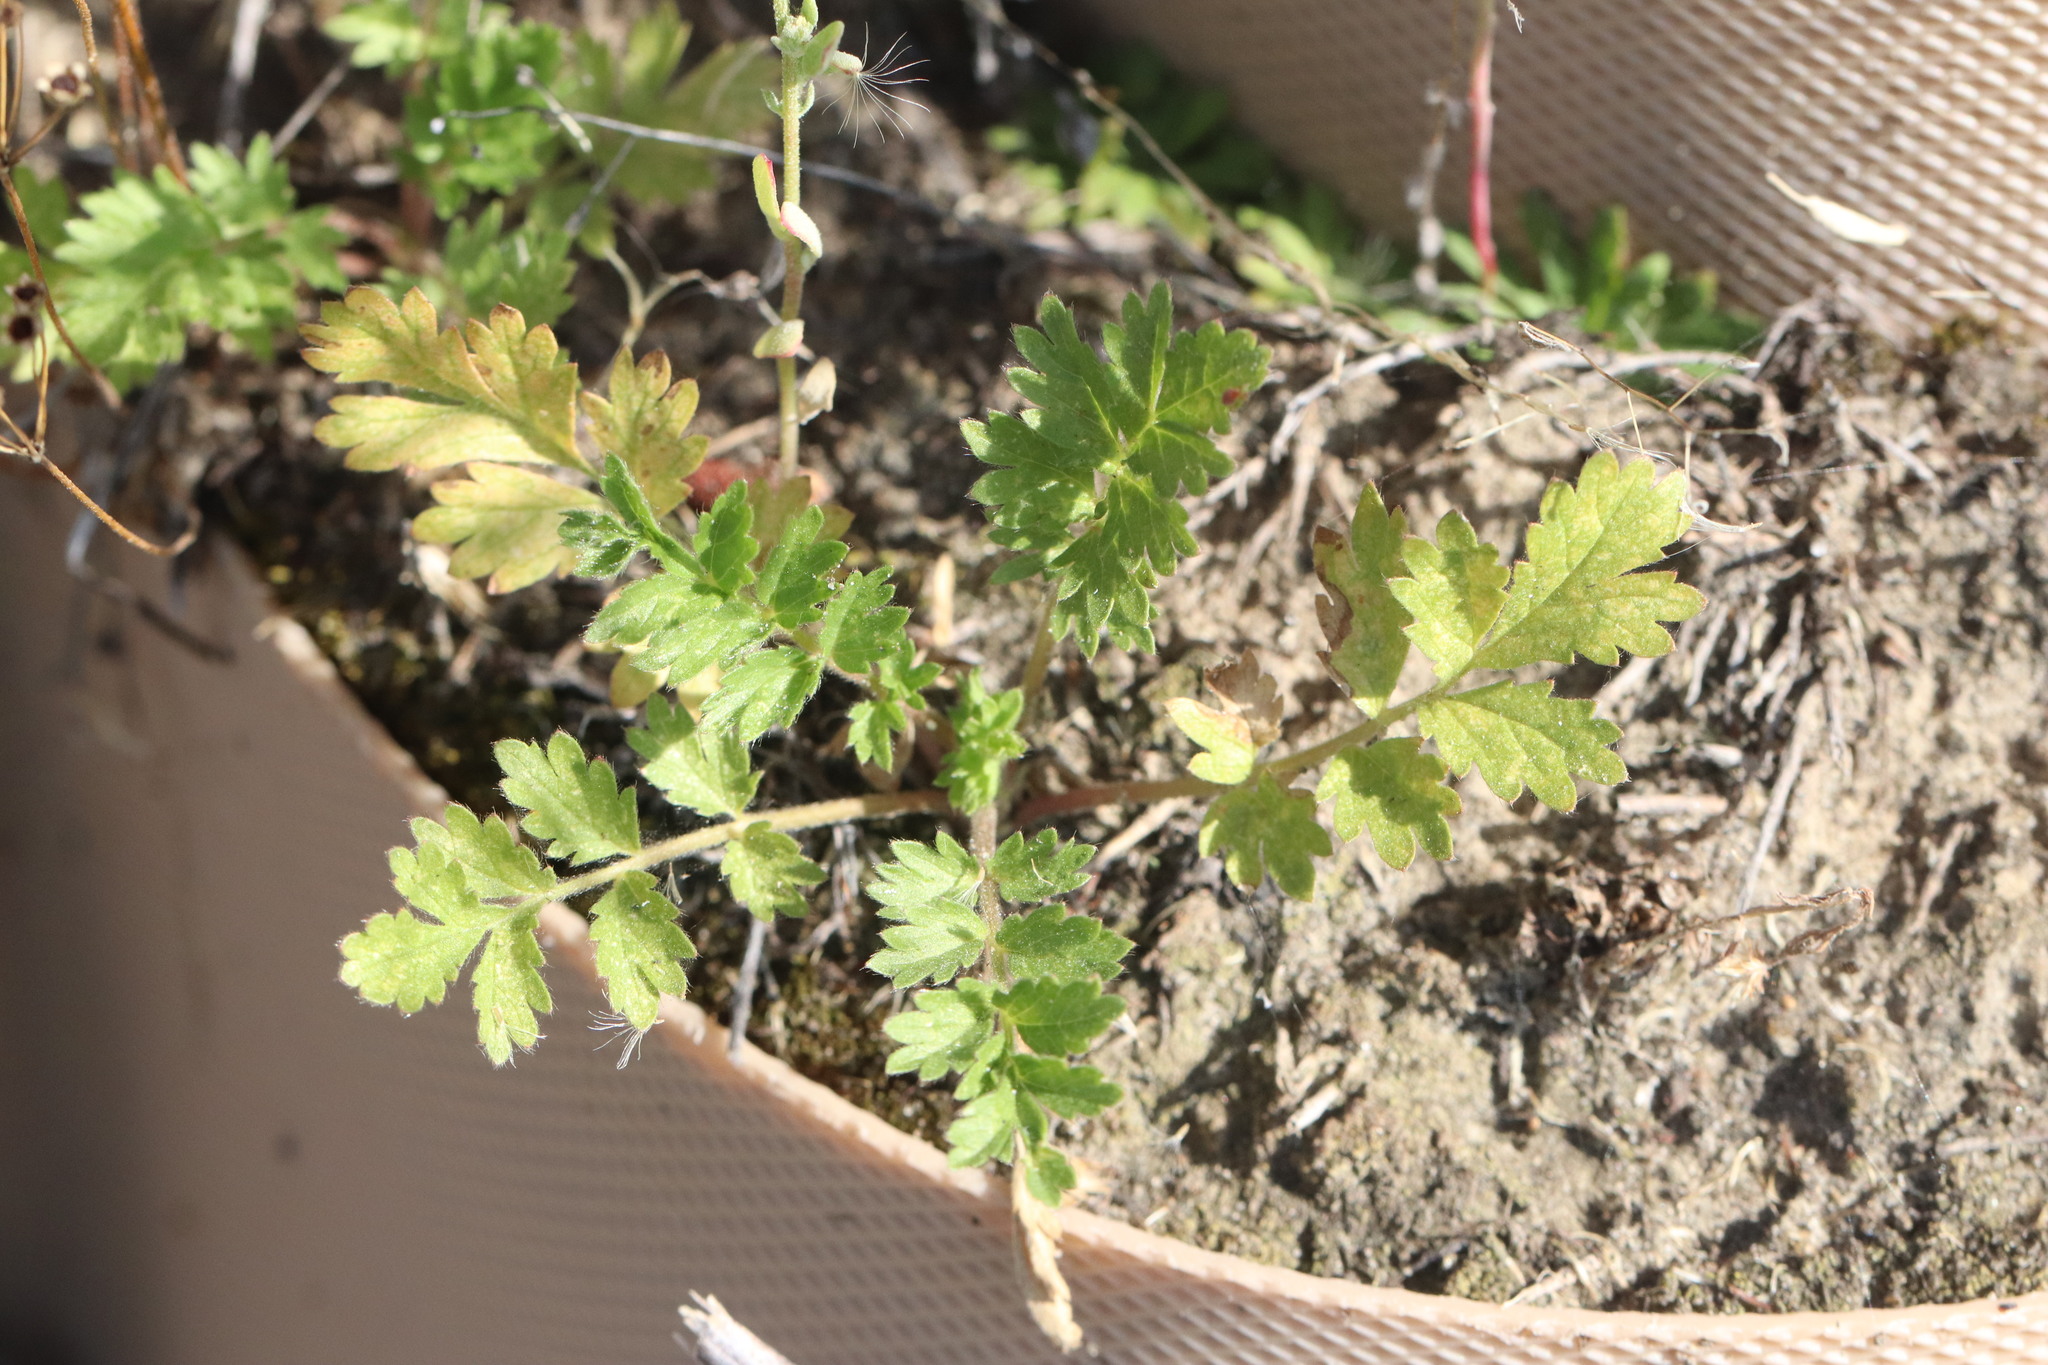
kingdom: Plantae
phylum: Tracheophyta
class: Magnoliopsida
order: Rosales
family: Rosaceae
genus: Potentilla
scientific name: Potentilla supina
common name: Prostrate cinquefoil
